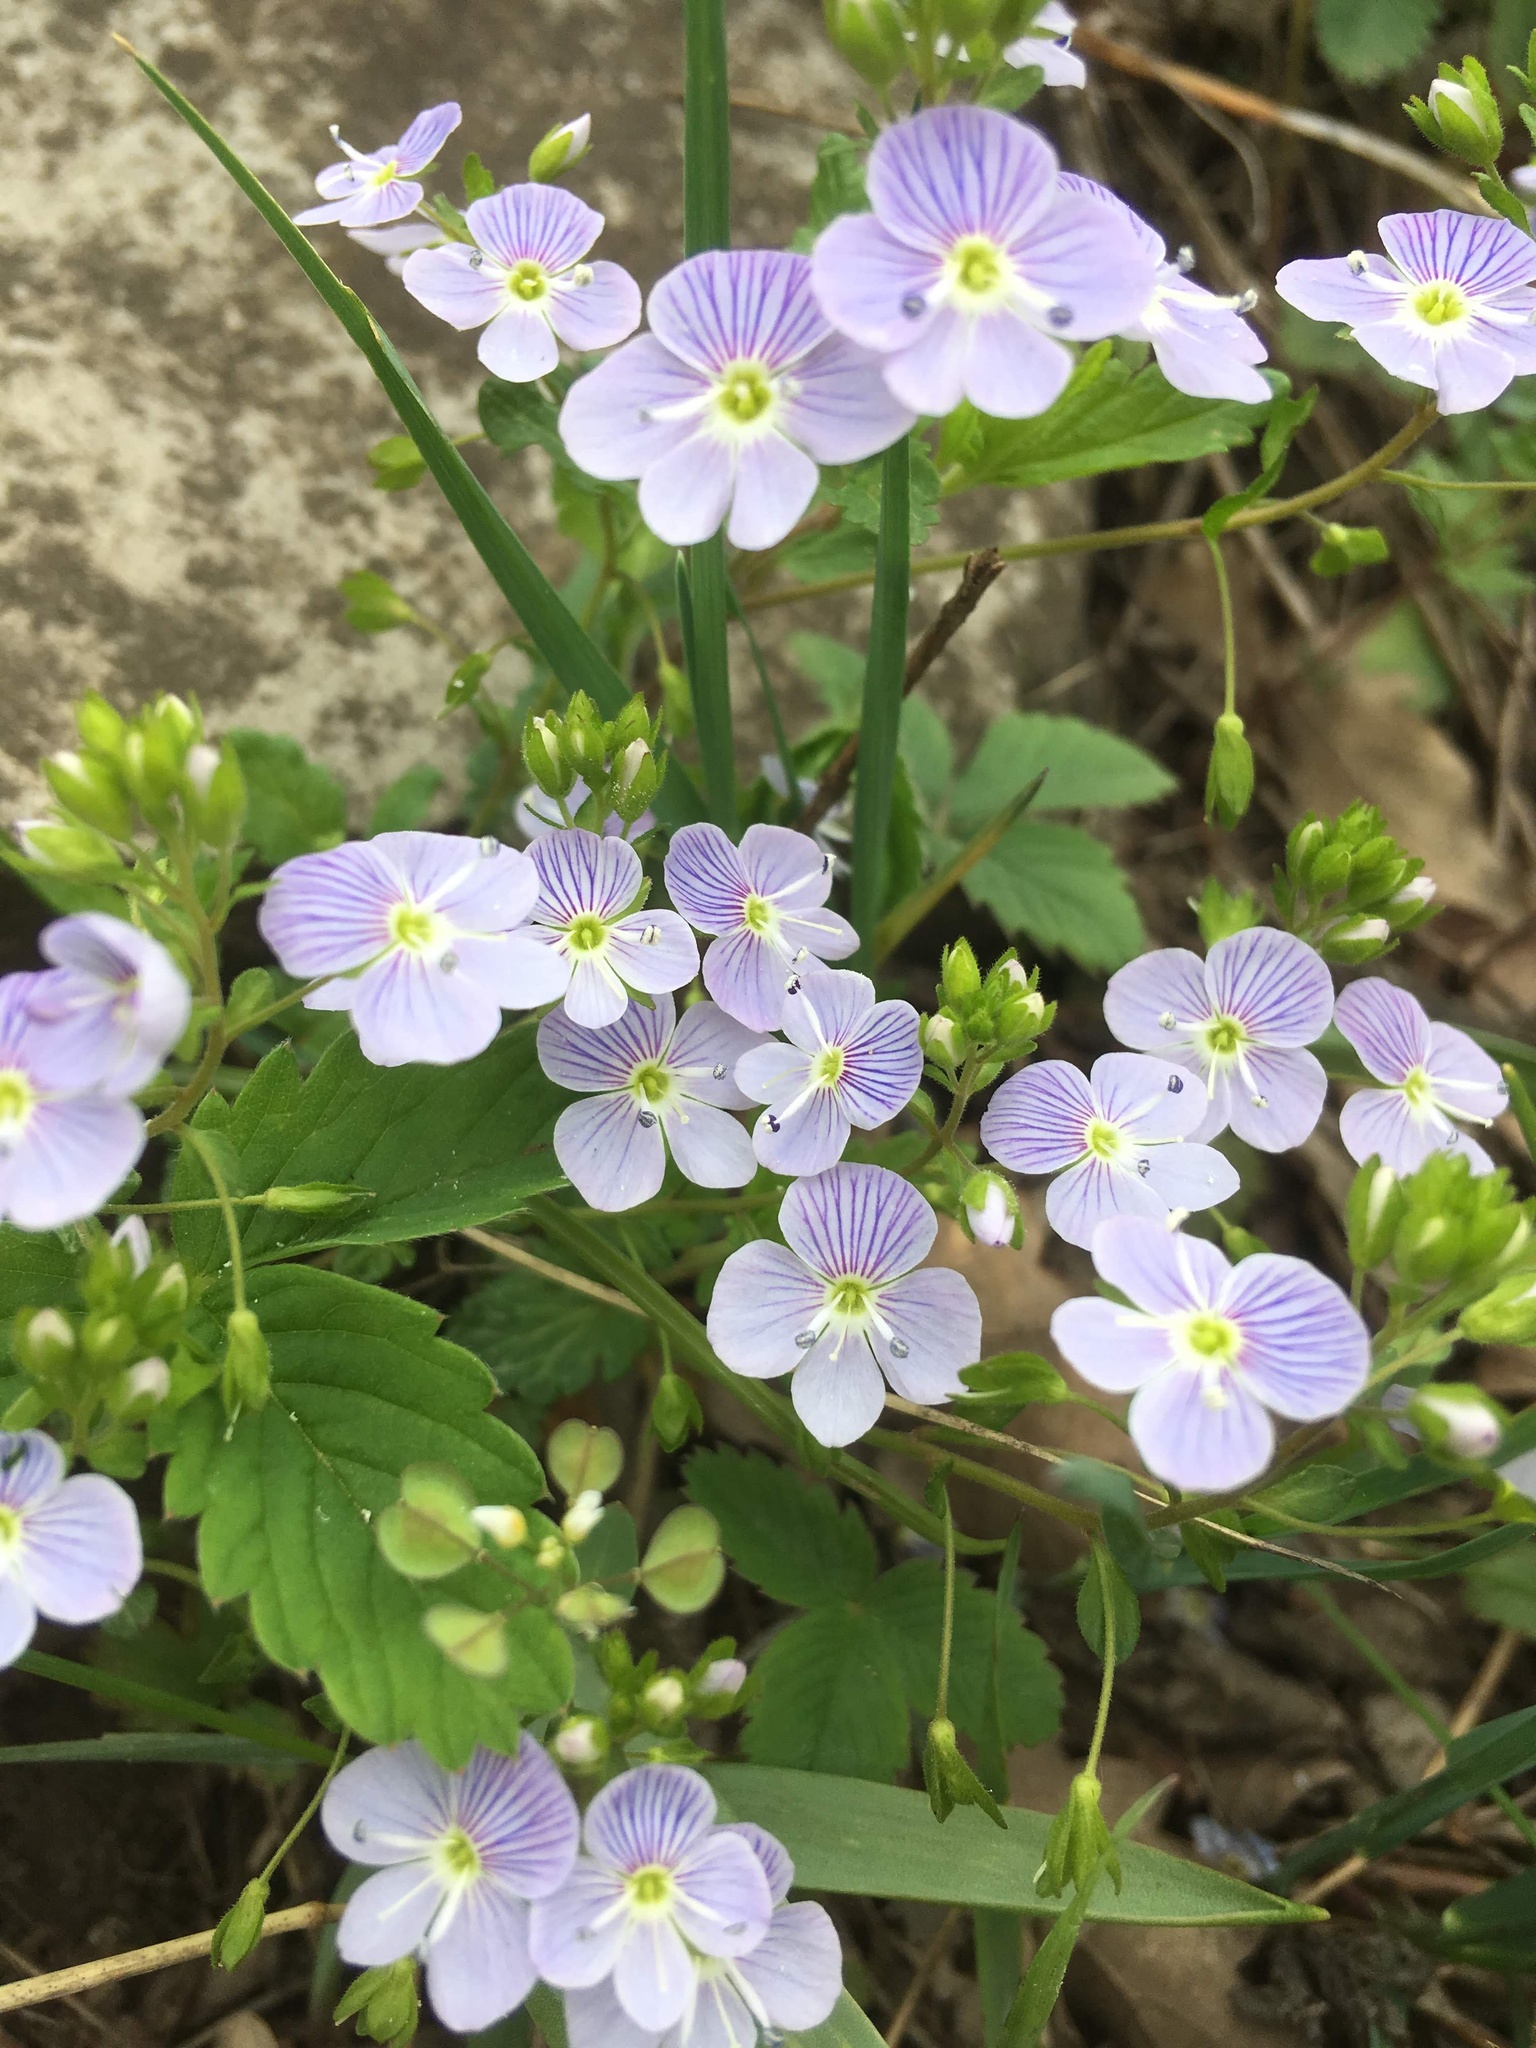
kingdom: Plantae
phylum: Tracheophyta
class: Magnoliopsida
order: Lamiales
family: Plantaginaceae
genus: Veronica
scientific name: Veronica peduncularis
